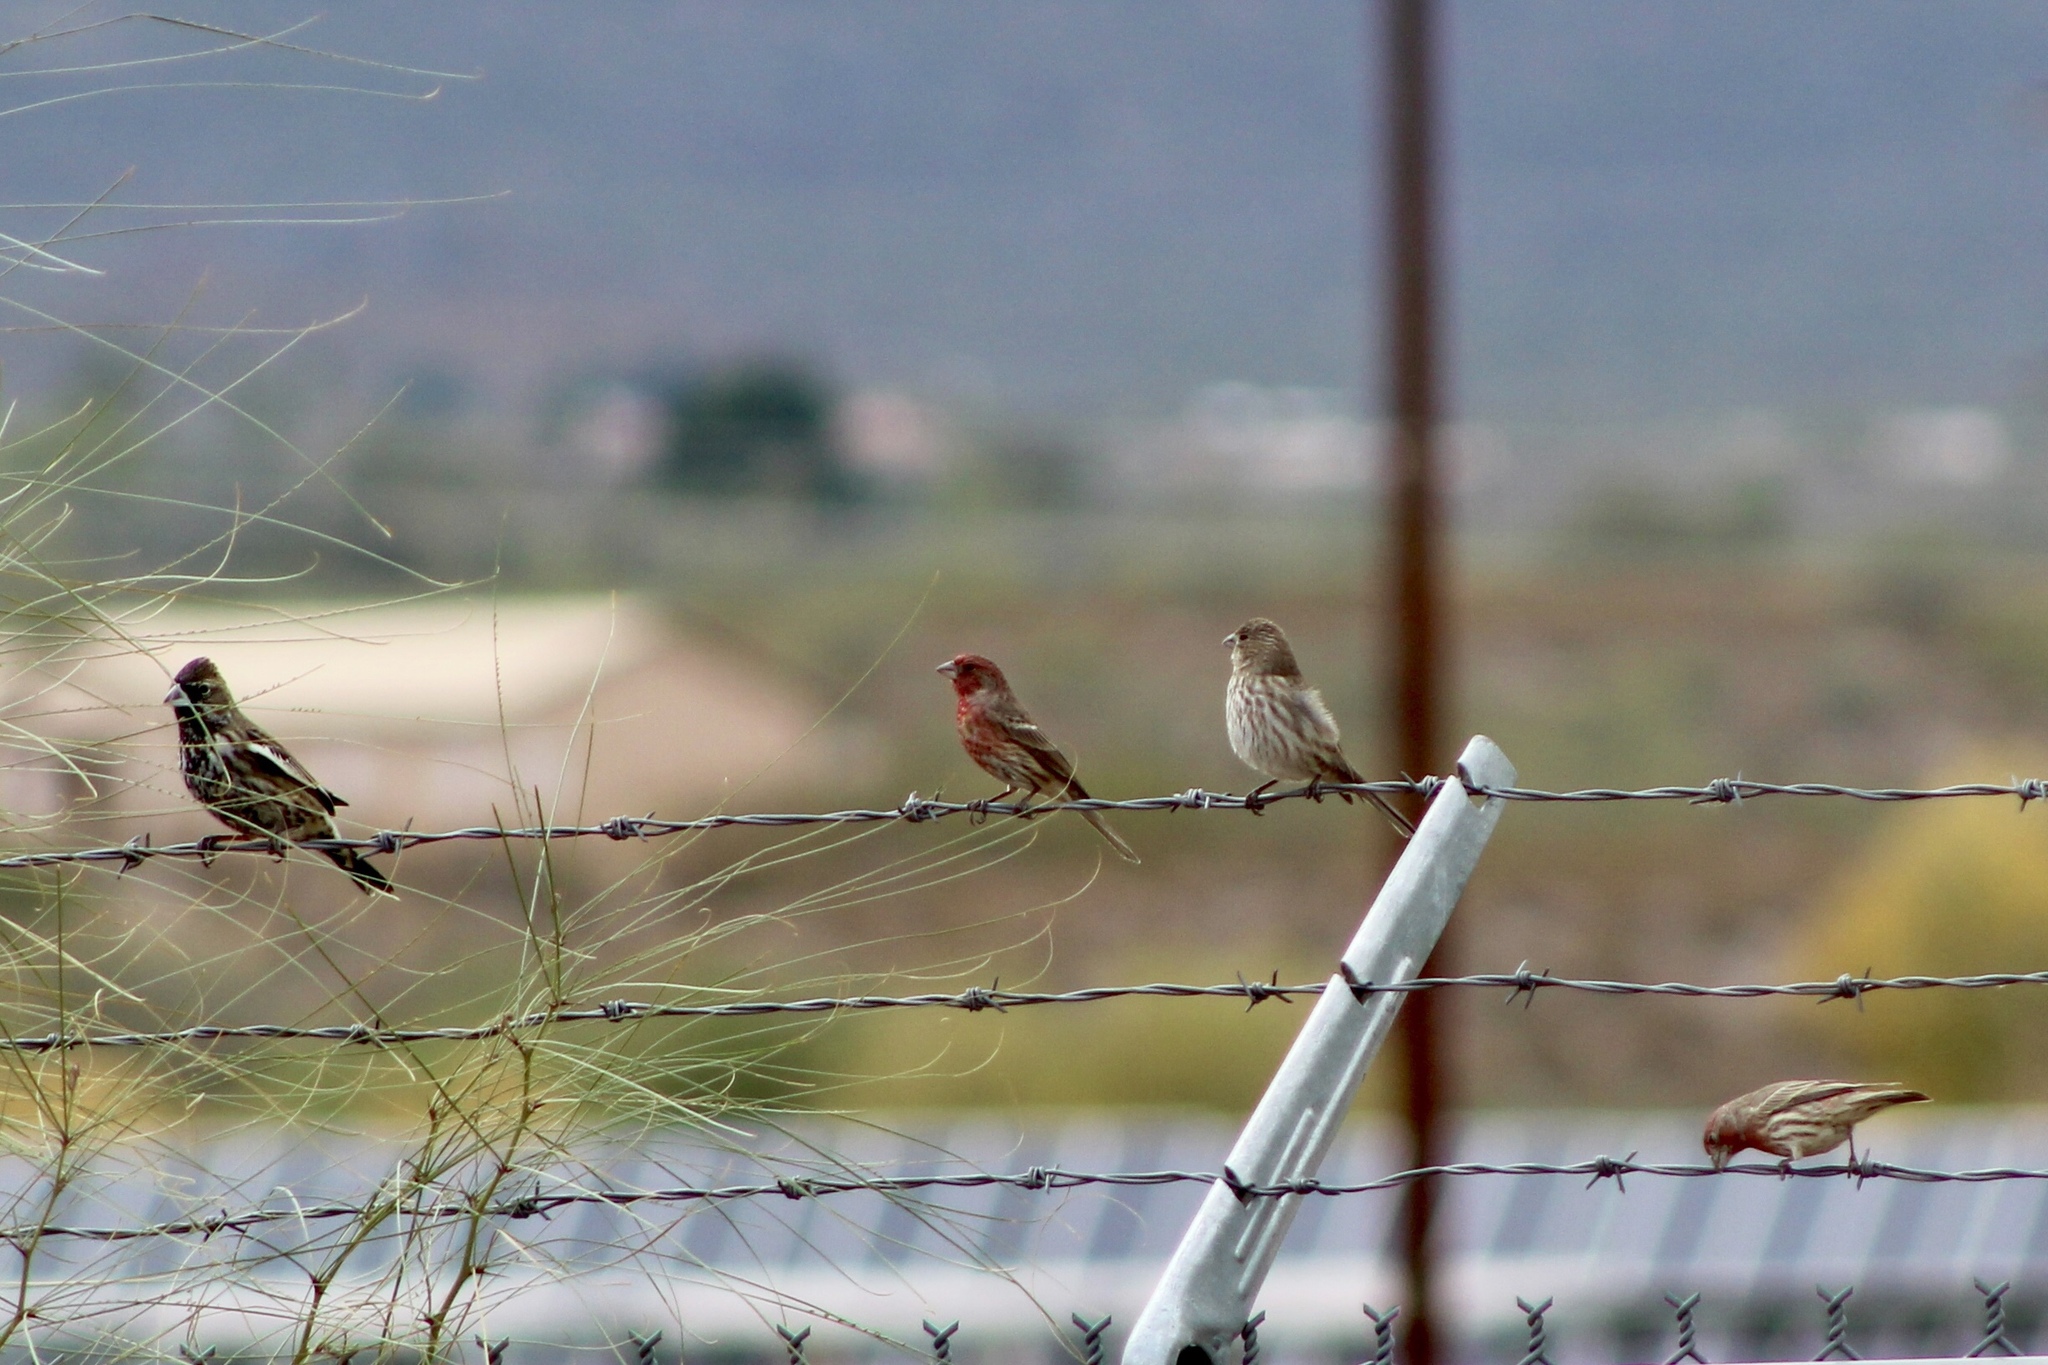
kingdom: Animalia
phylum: Chordata
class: Aves
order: Passeriformes
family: Fringillidae
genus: Haemorhous
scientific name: Haemorhous mexicanus
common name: House finch
